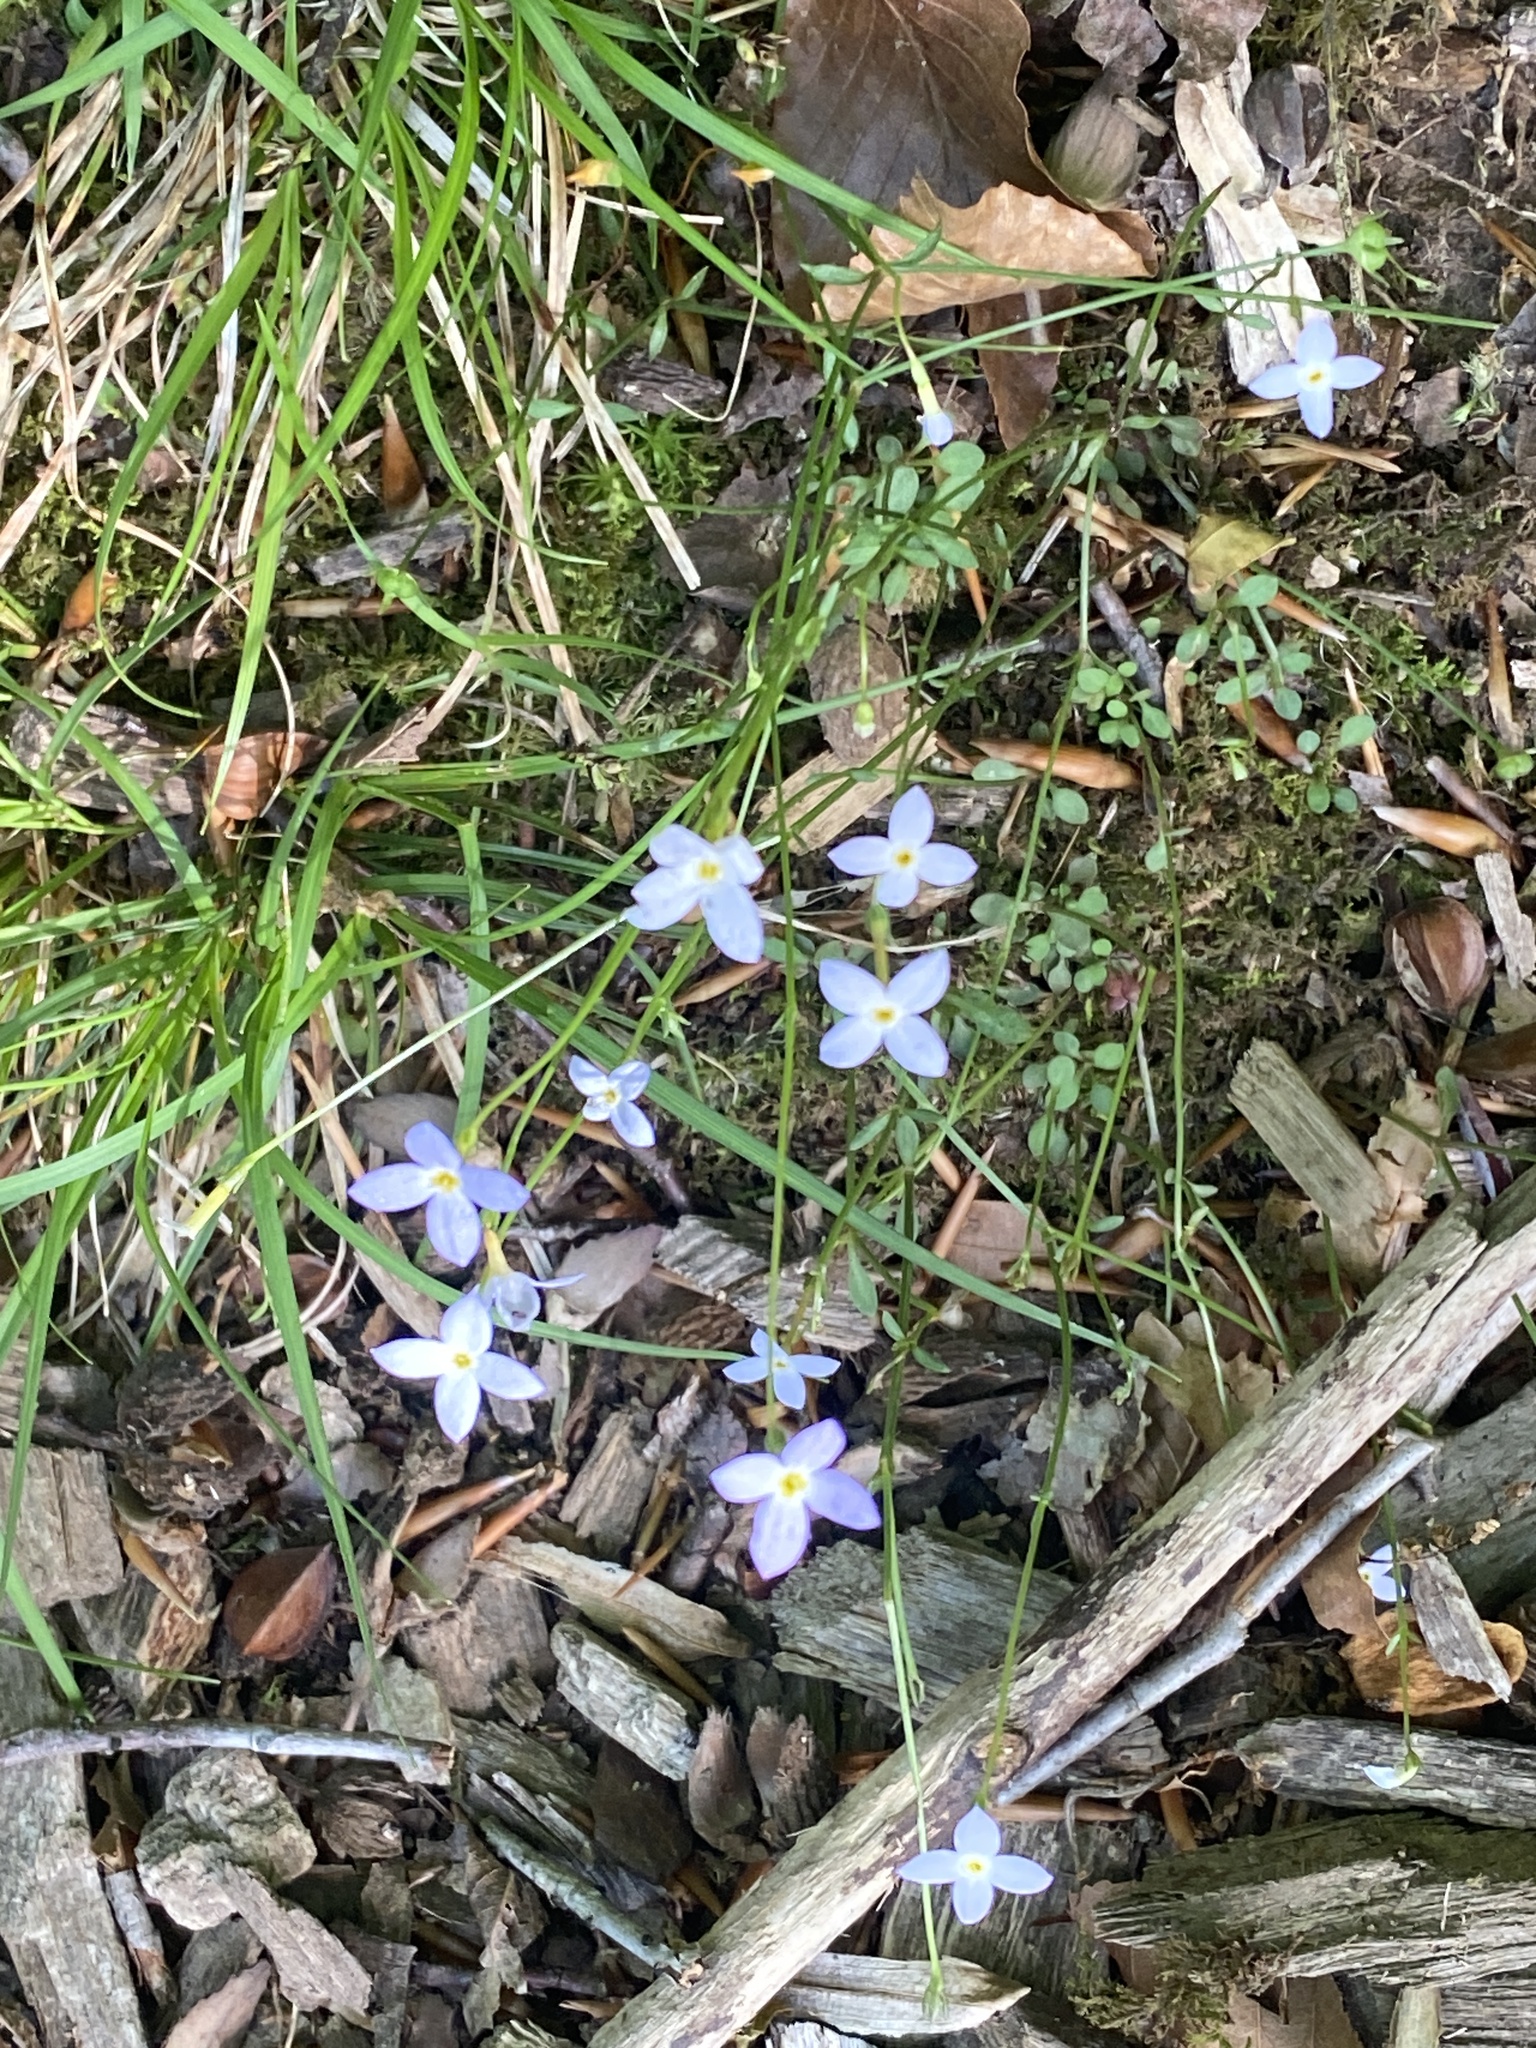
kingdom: Plantae
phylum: Tracheophyta
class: Magnoliopsida
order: Gentianales
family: Rubiaceae
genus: Houstonia
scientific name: Houstonia caerulea
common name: Bluets
